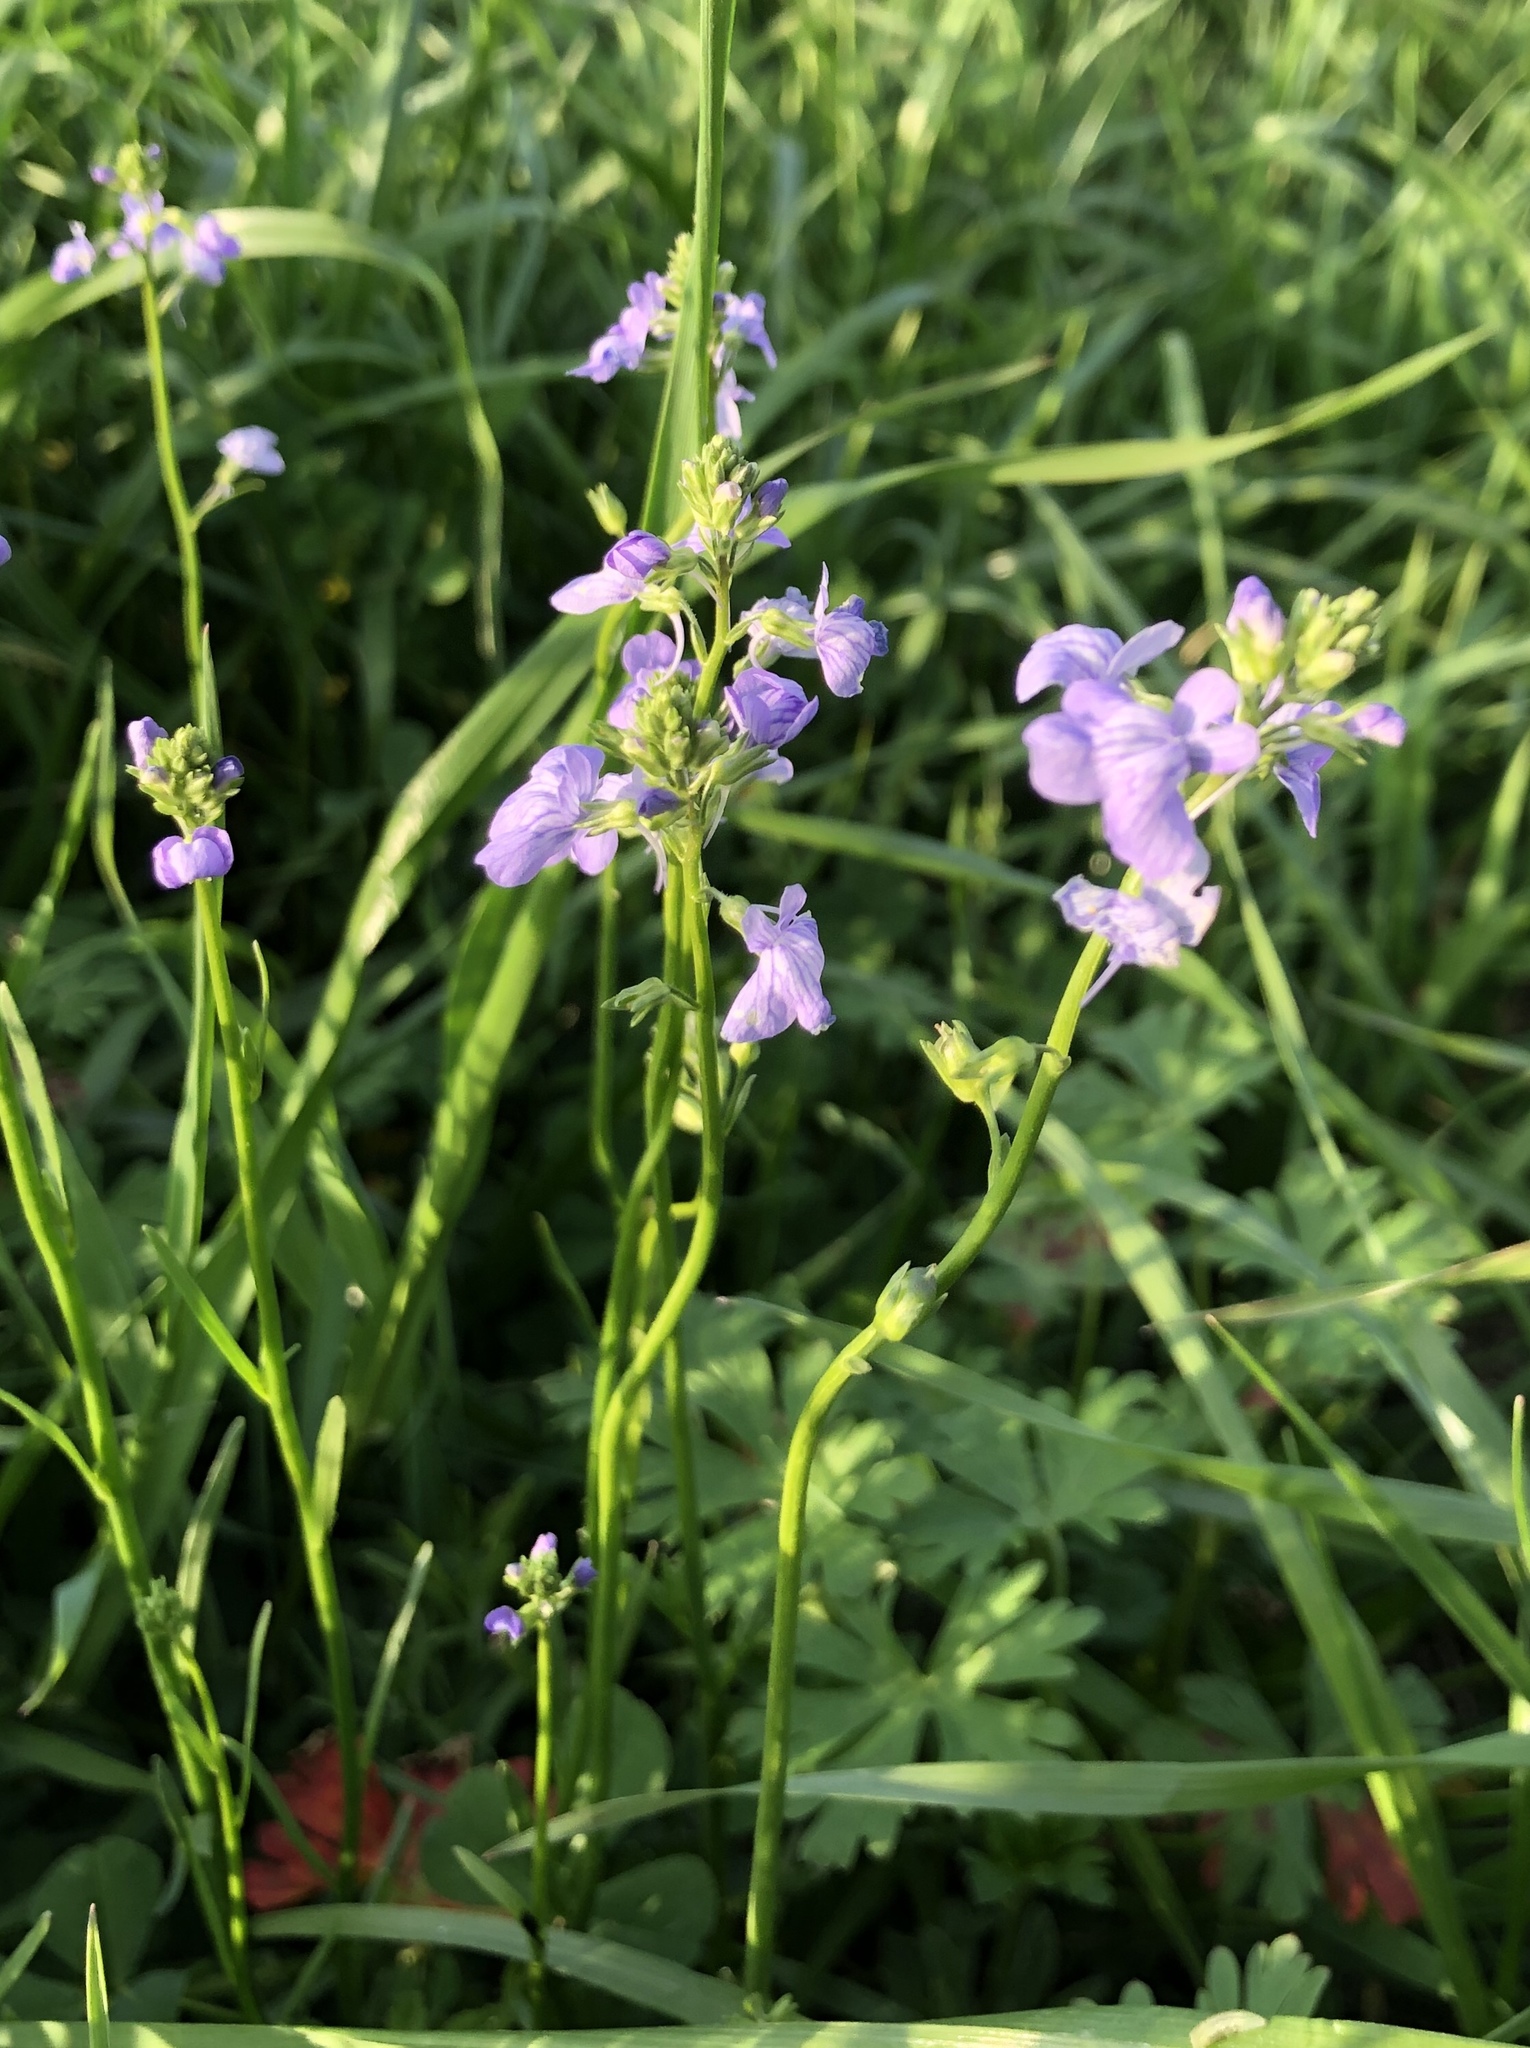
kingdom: Plantae
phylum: Tracheophyta
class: Magnoliopsida
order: Lamiales
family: Plantaginaceae
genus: Nuttallanthus
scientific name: Nuttallanthus texanus
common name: Texas toadflax
